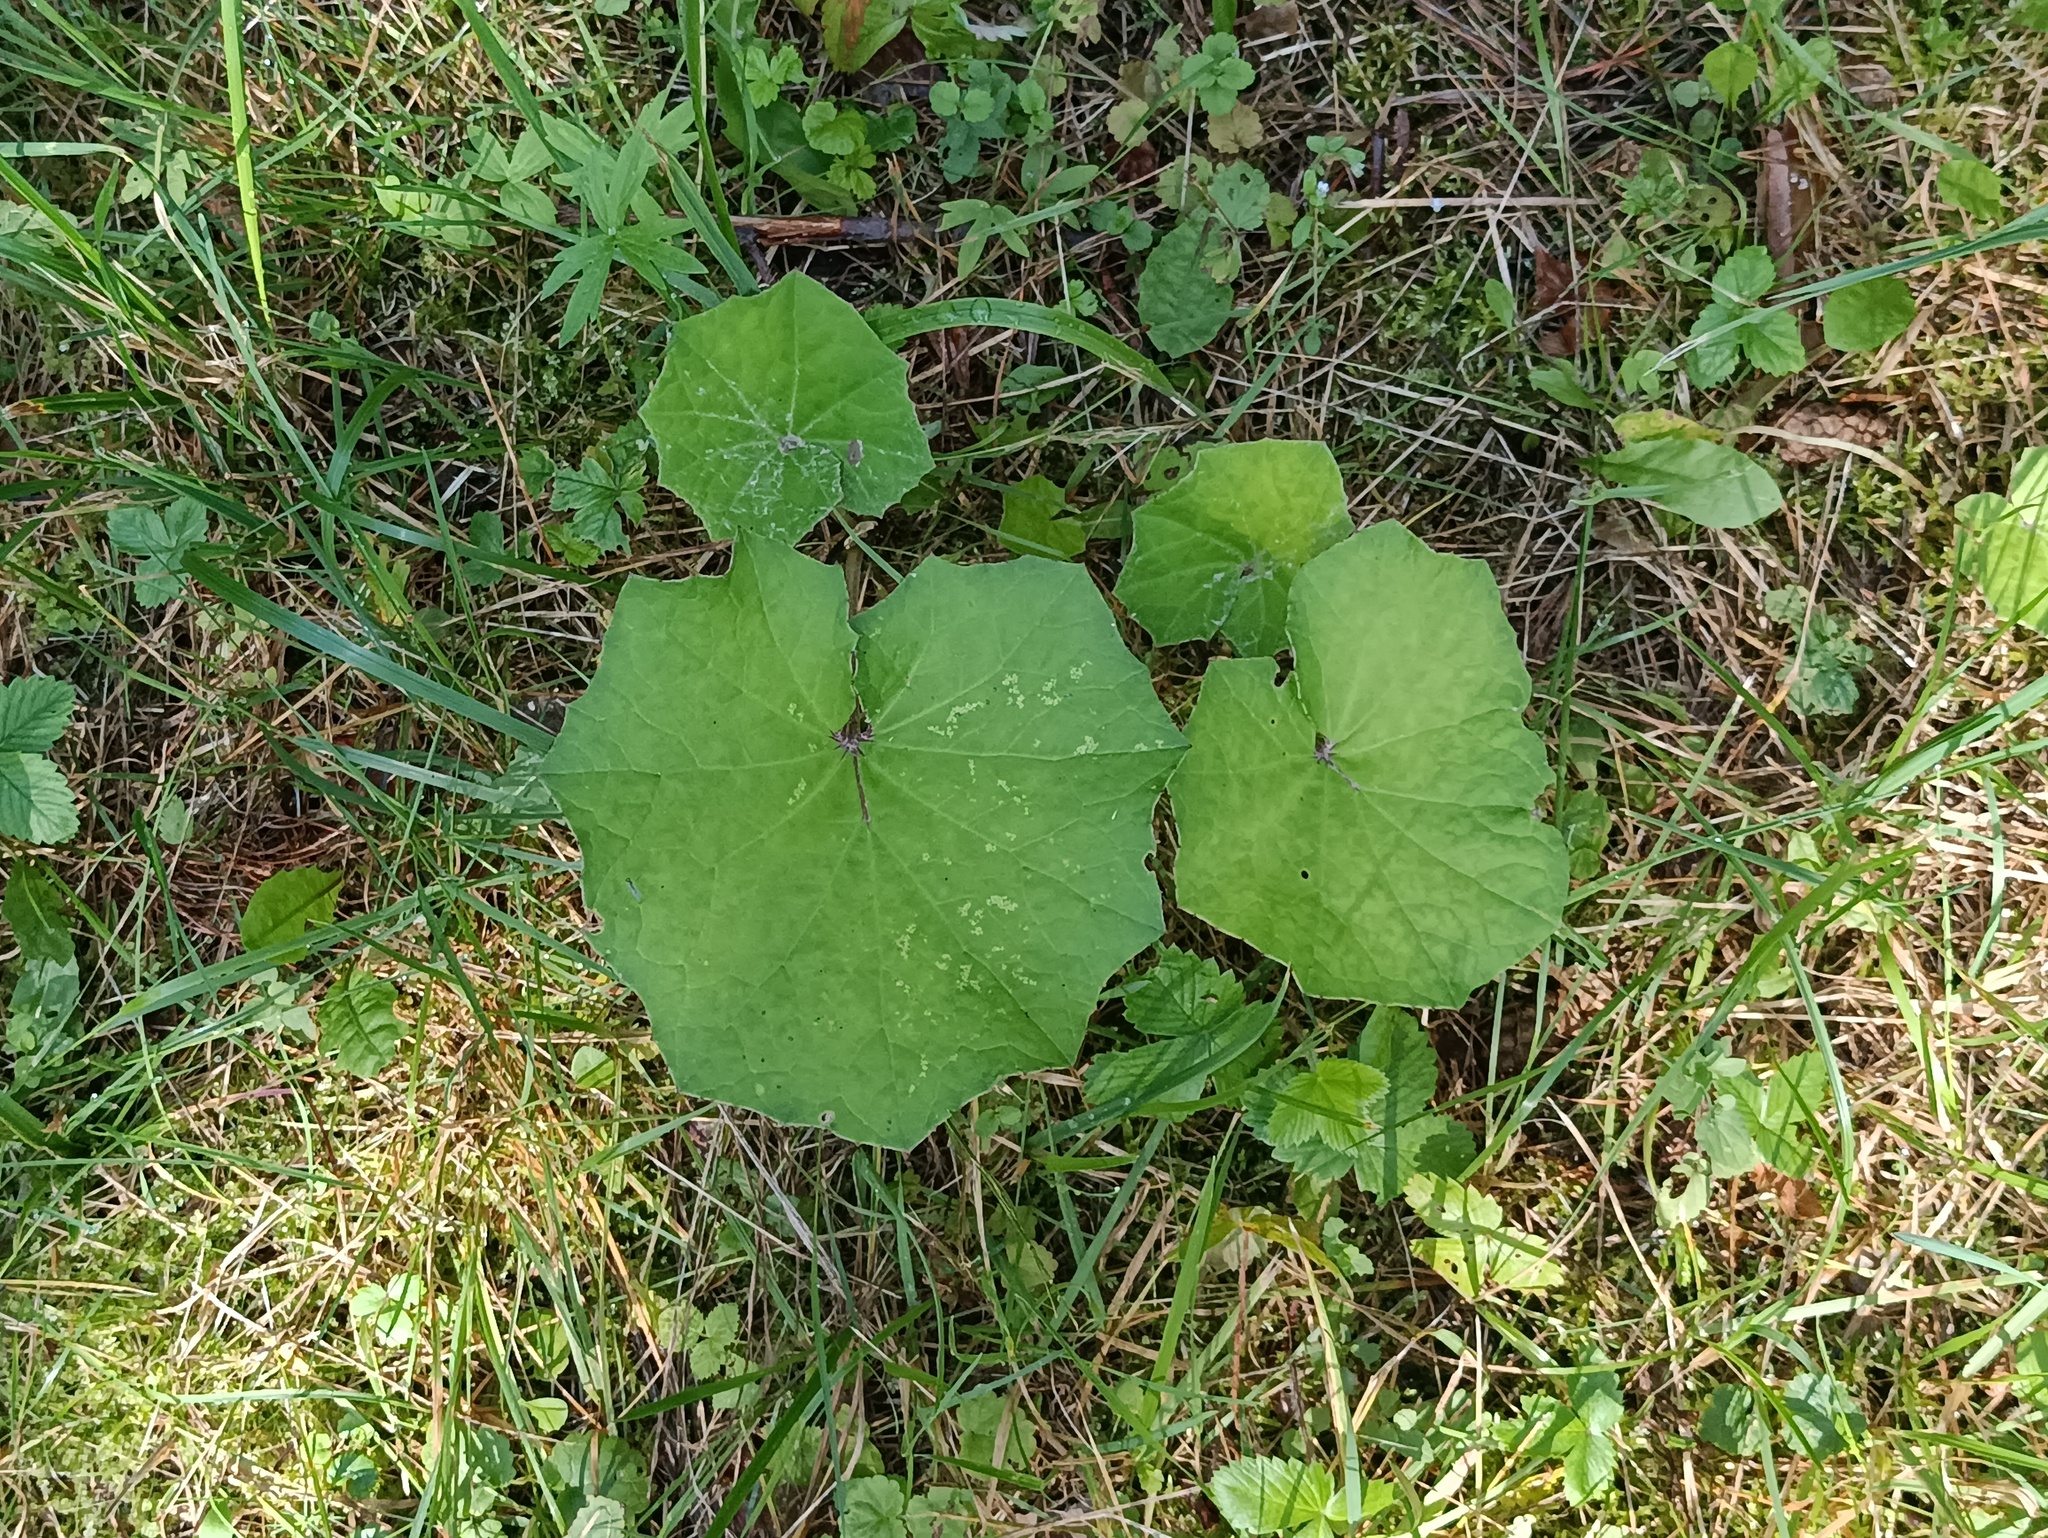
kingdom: Plantae
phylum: Tracheophyta
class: Magnoliopsida
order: Asterales
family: Asteraceae
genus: Tussilago
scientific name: Tussilago farfara
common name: Coltsfoot
